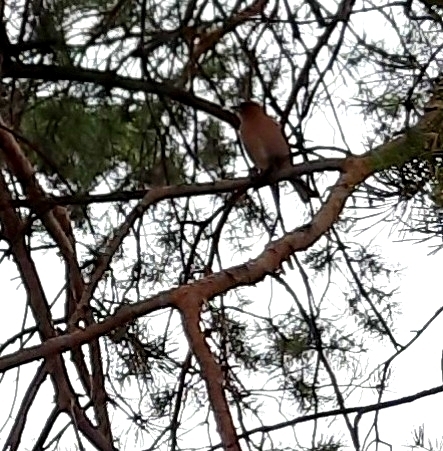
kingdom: Animalia
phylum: Chordata
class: Aves
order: Passeriformes
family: Fringillidae
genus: Fringilla
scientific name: Fringilla coelebs
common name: Common chaffinch
